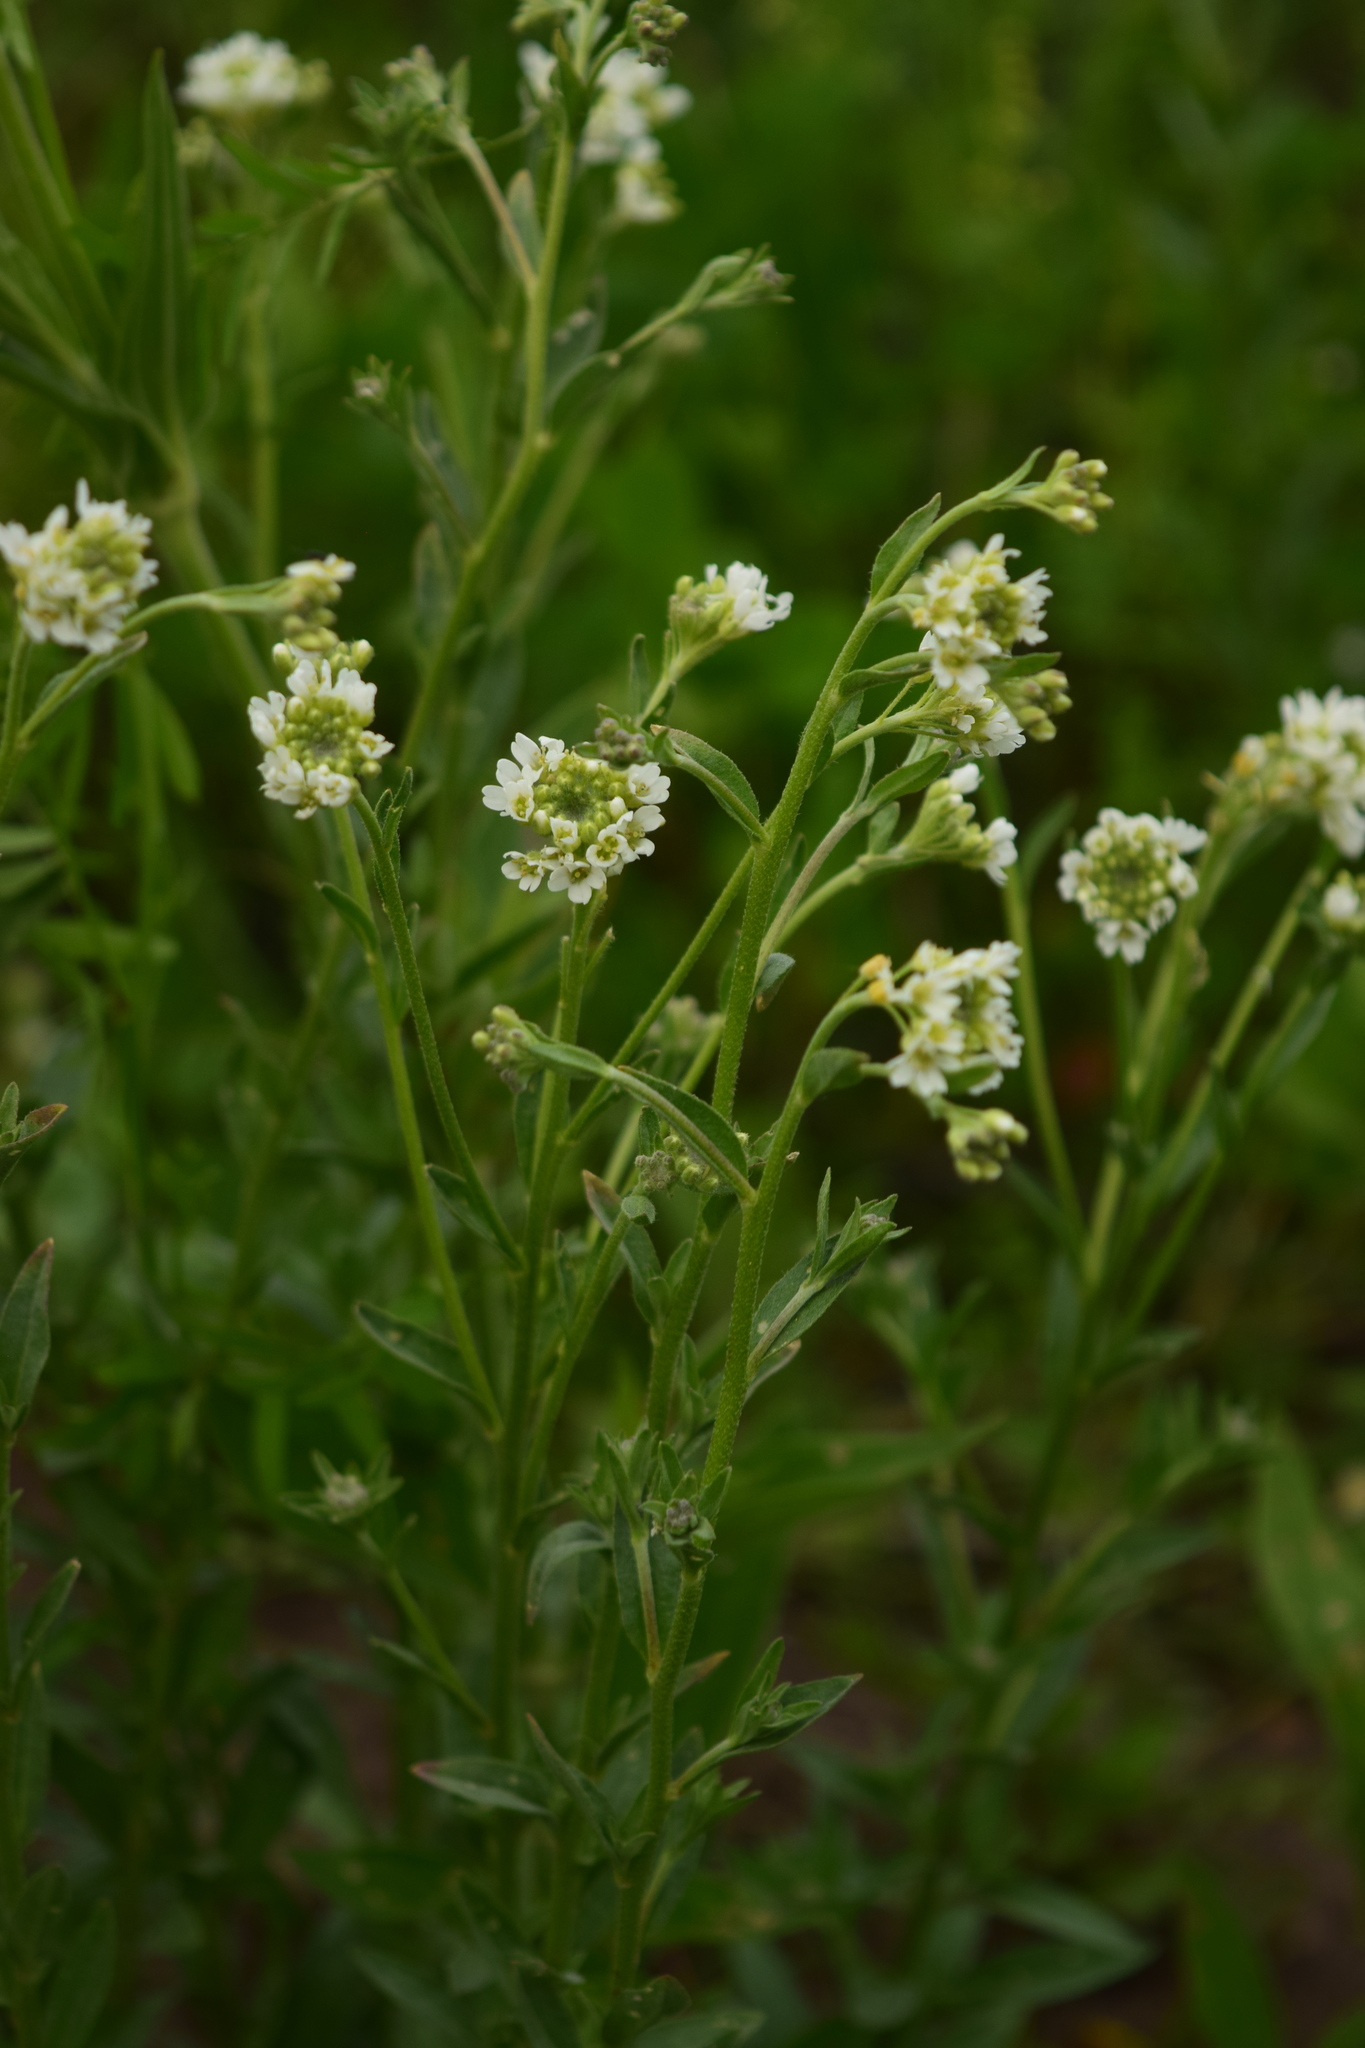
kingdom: Plantae
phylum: Tracheophyta
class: Magnoliopsida
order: Brassicales
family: Brassicaceae
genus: Berteroa
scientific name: Berteroa incana
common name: Hoary alison
